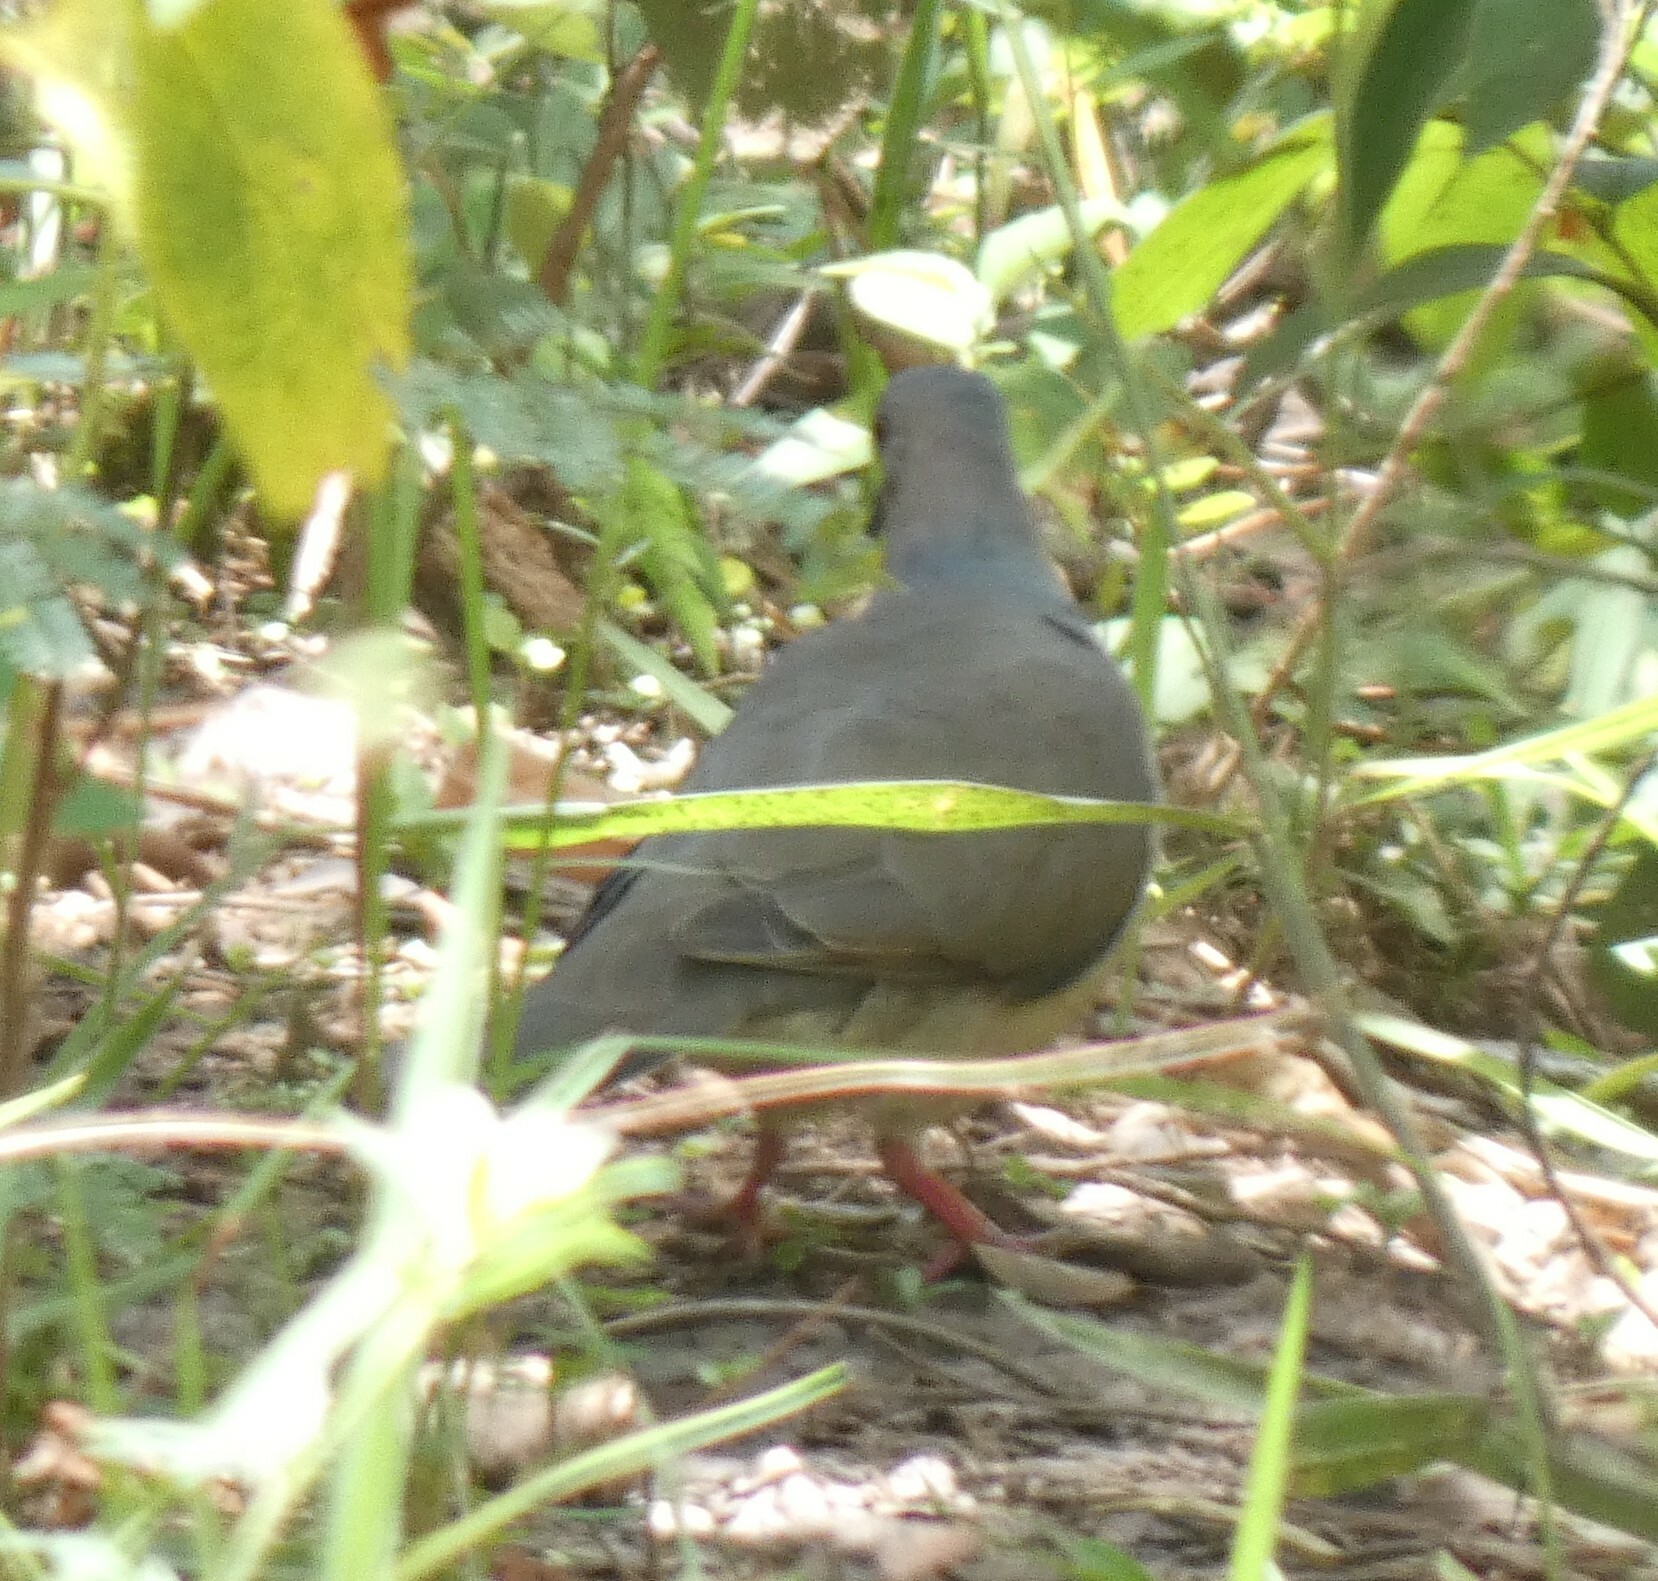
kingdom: Animalia
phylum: Chordata
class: Aves
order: Columbiformes
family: Columbidae
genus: Leptotila
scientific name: Leptotila verreauxi
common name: White-tipped dove
